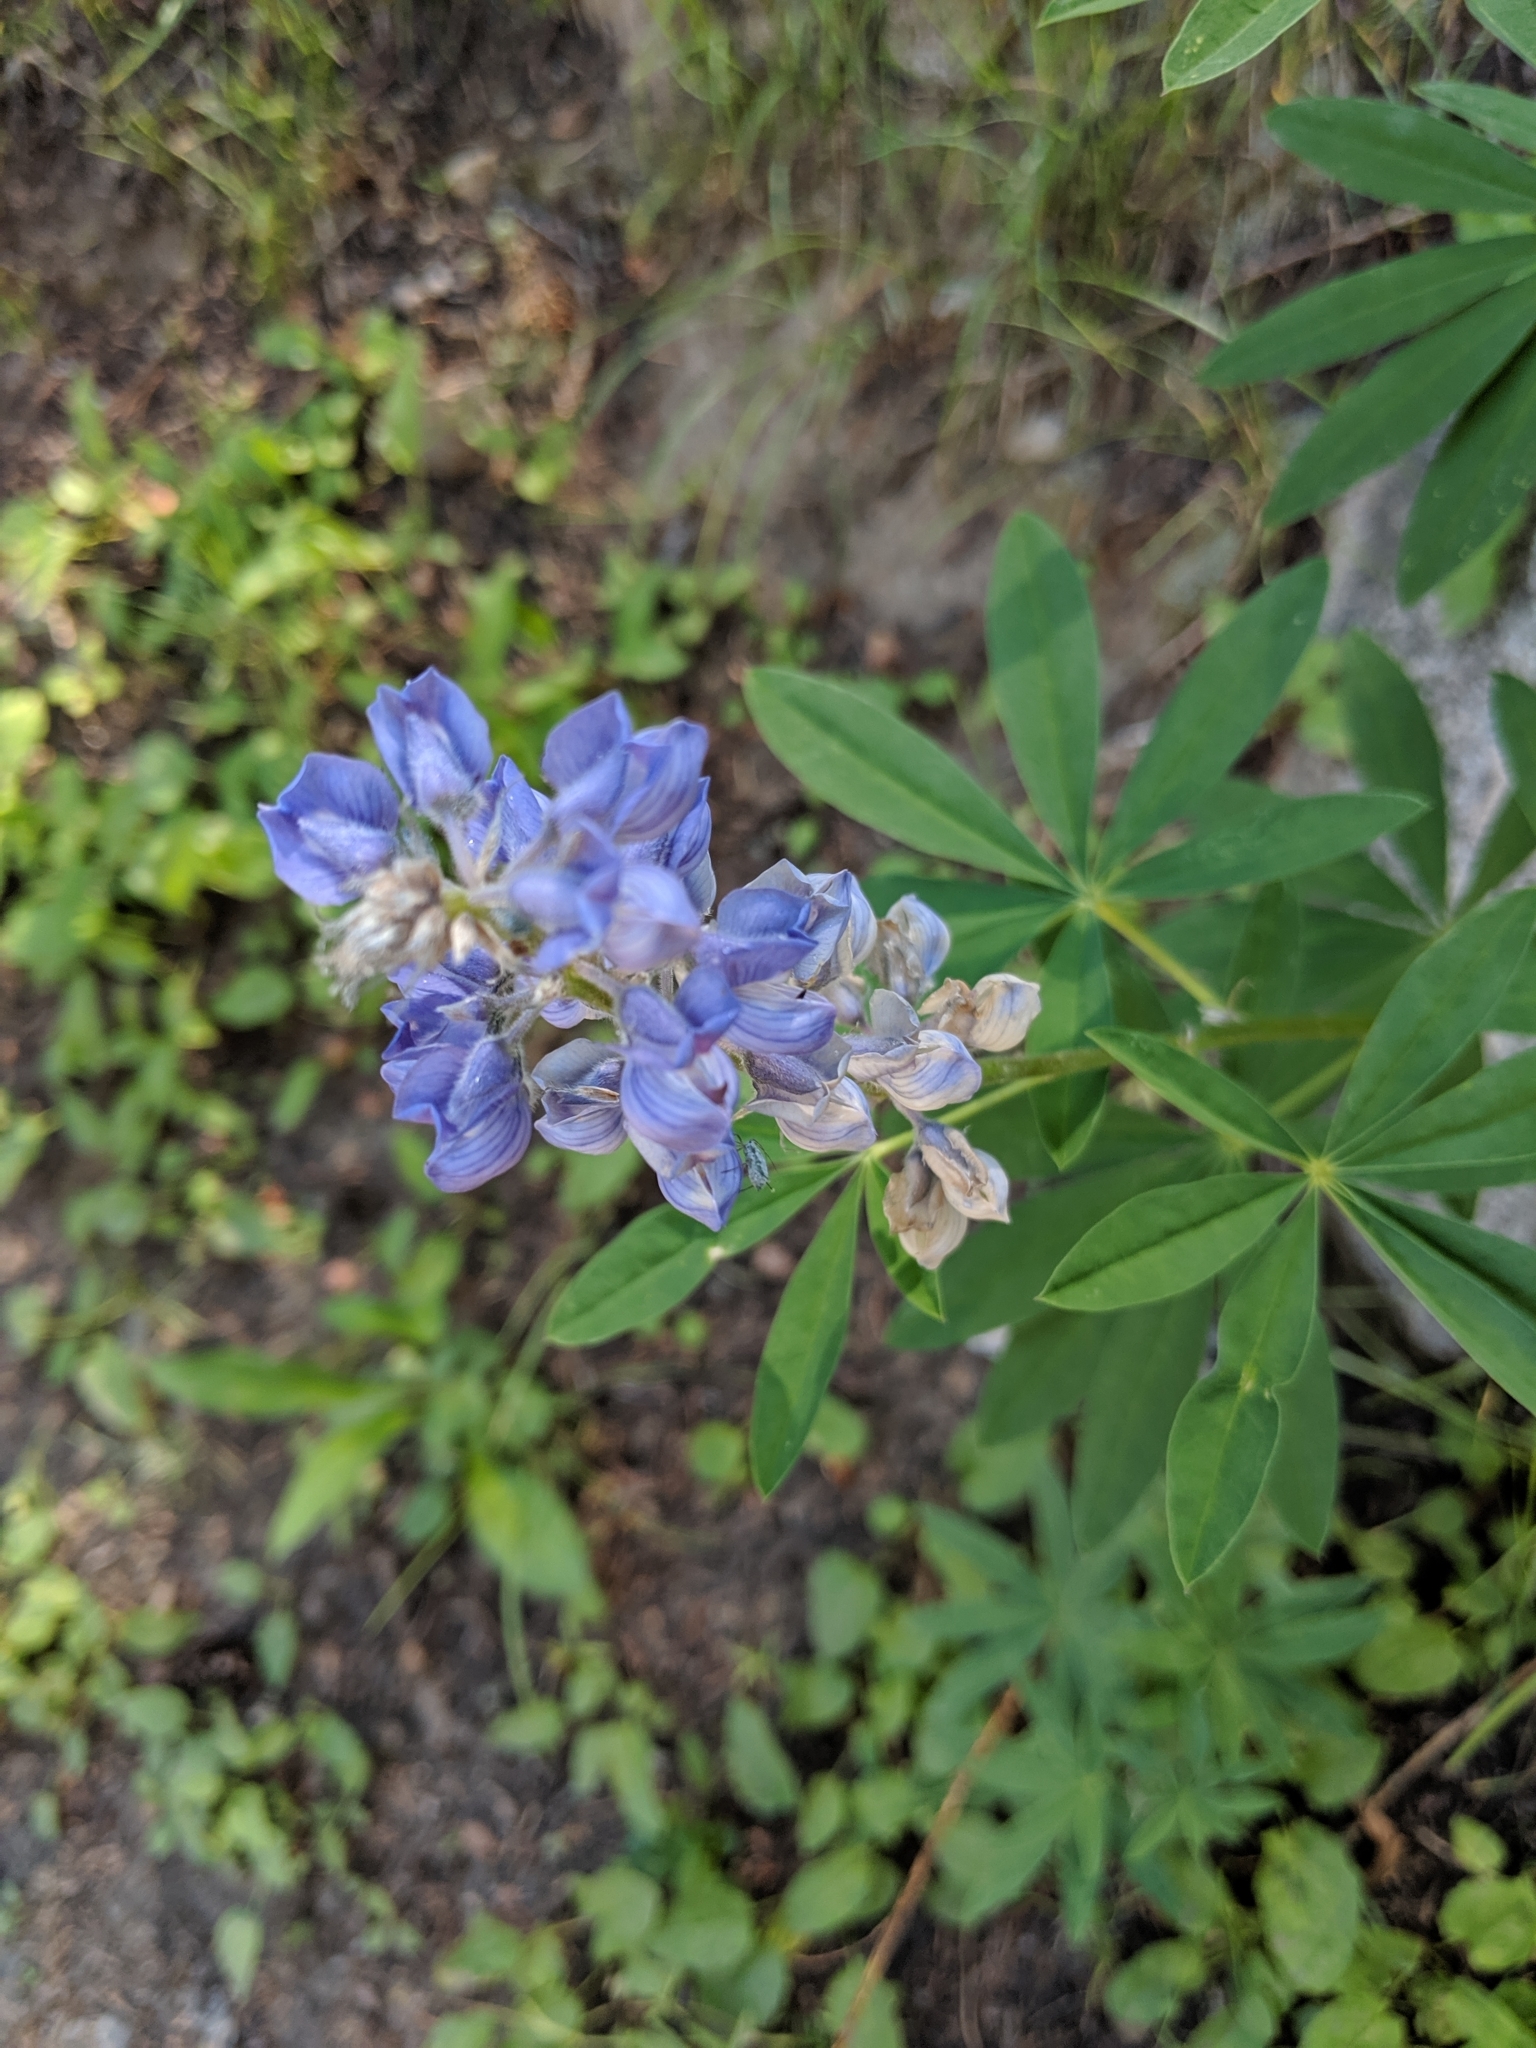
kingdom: Plantae
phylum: Tracheophyta
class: Magnoliopsida
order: Fabales
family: Fabaceae
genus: Lupinus
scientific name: Lupinus argenteus
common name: Silvery lupine
